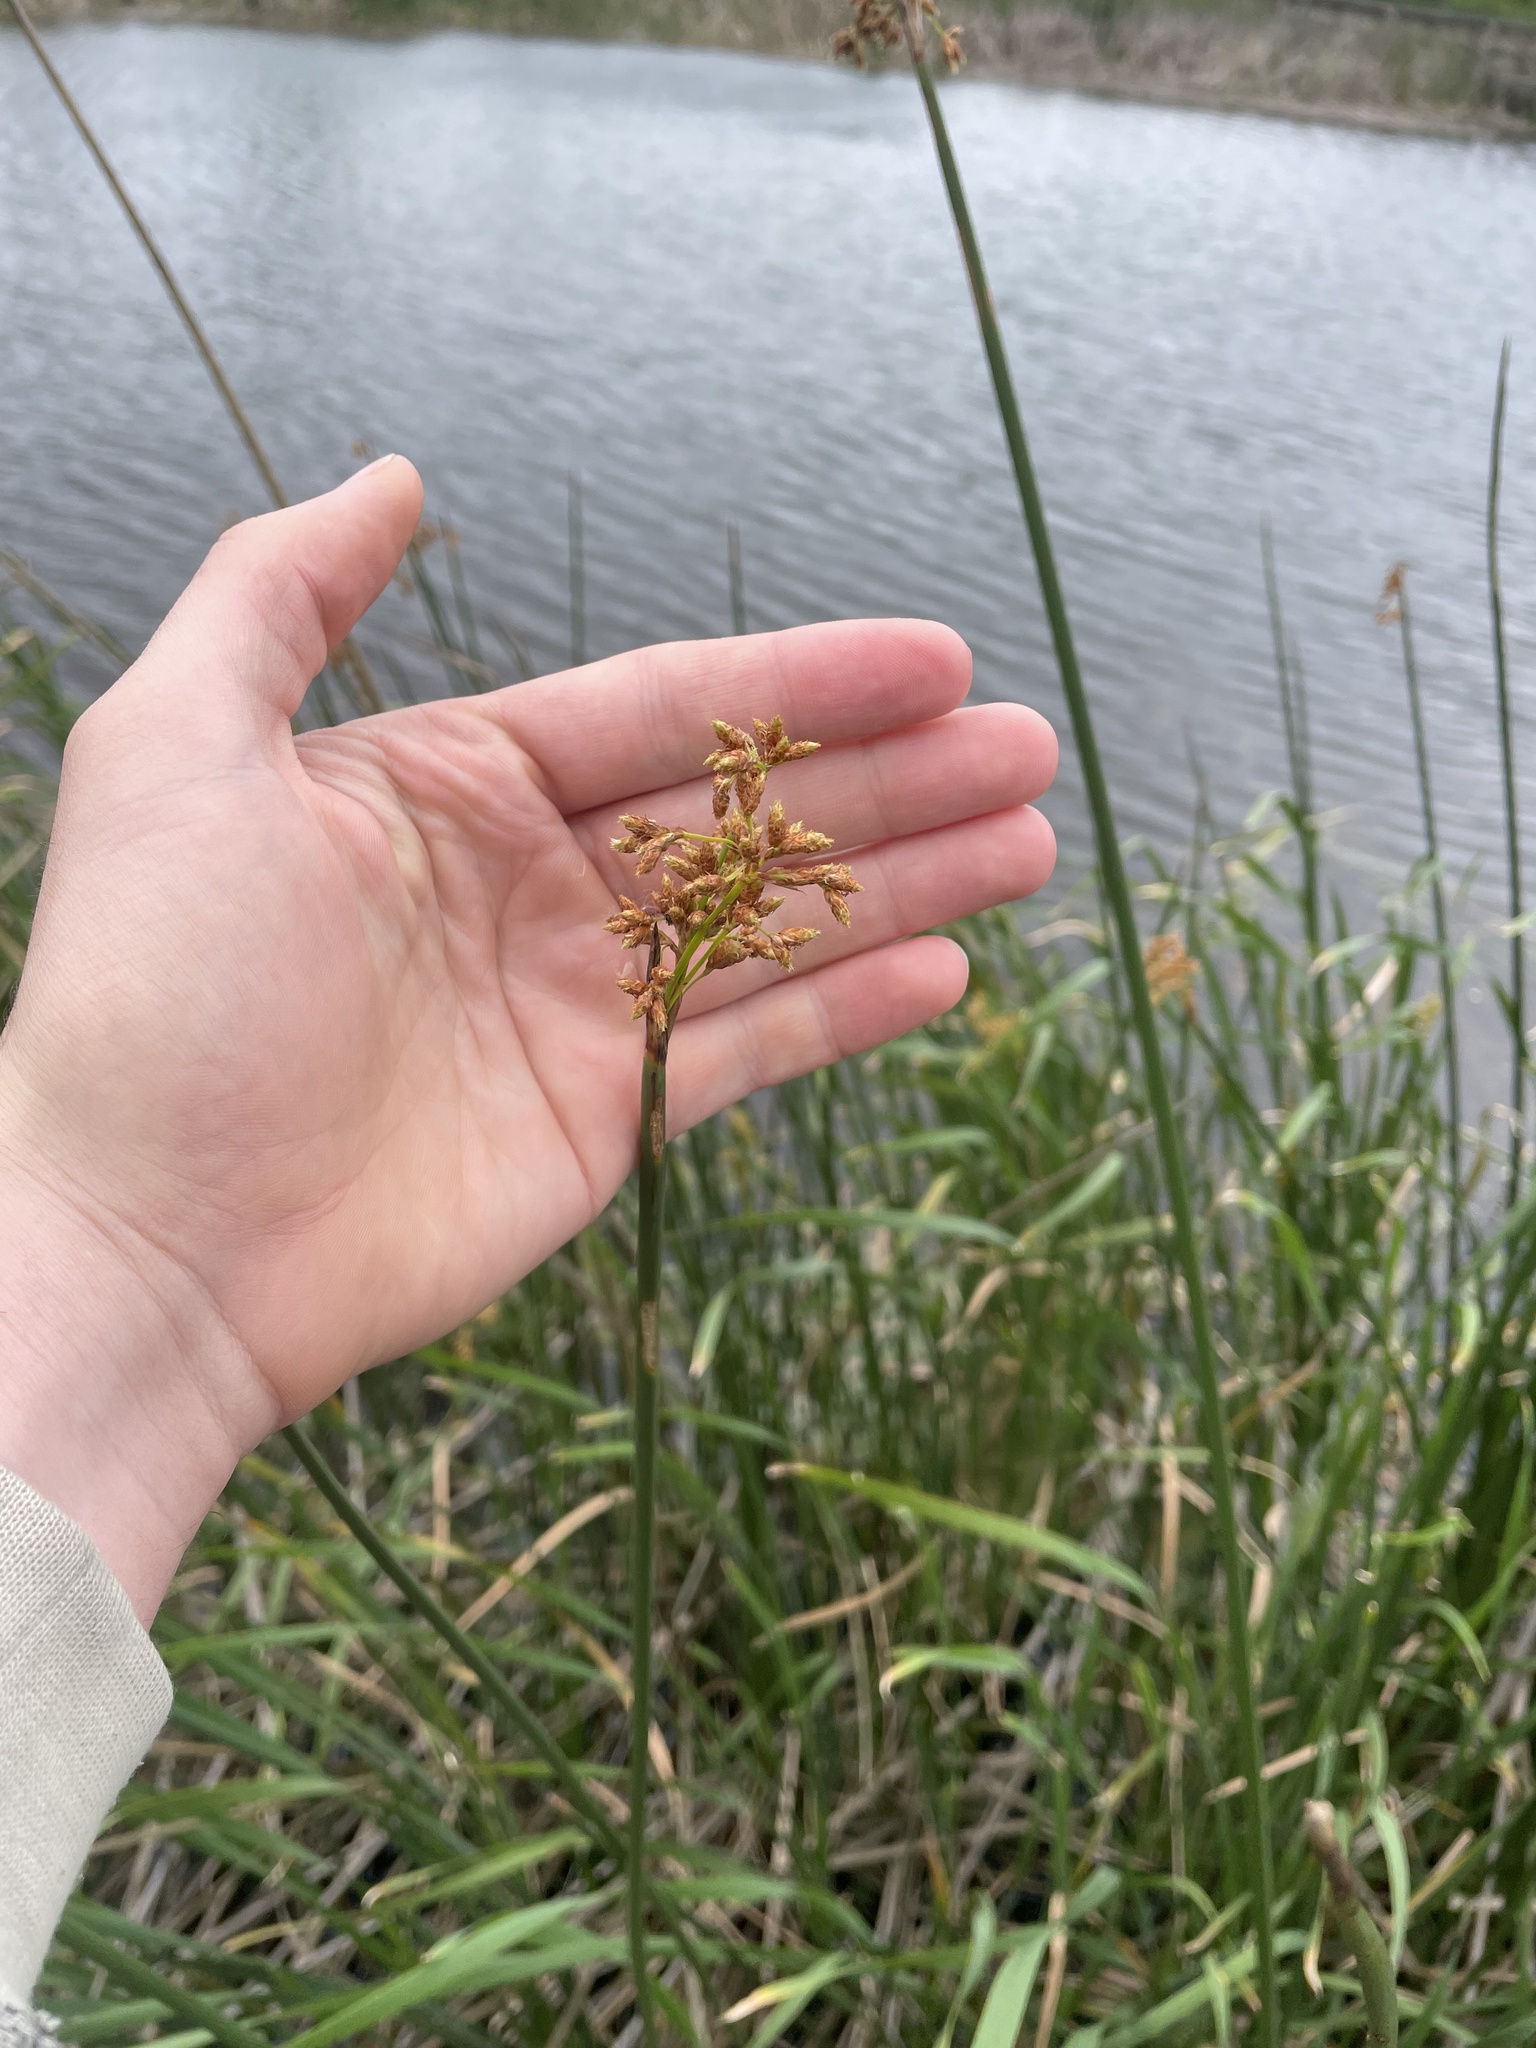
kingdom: Plantae
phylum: Tracheophyta
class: Liliopsida
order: Poales
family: Cyperaceae
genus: Schoenoplectus
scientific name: Schoenoplectus californicus
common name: California bulrush
